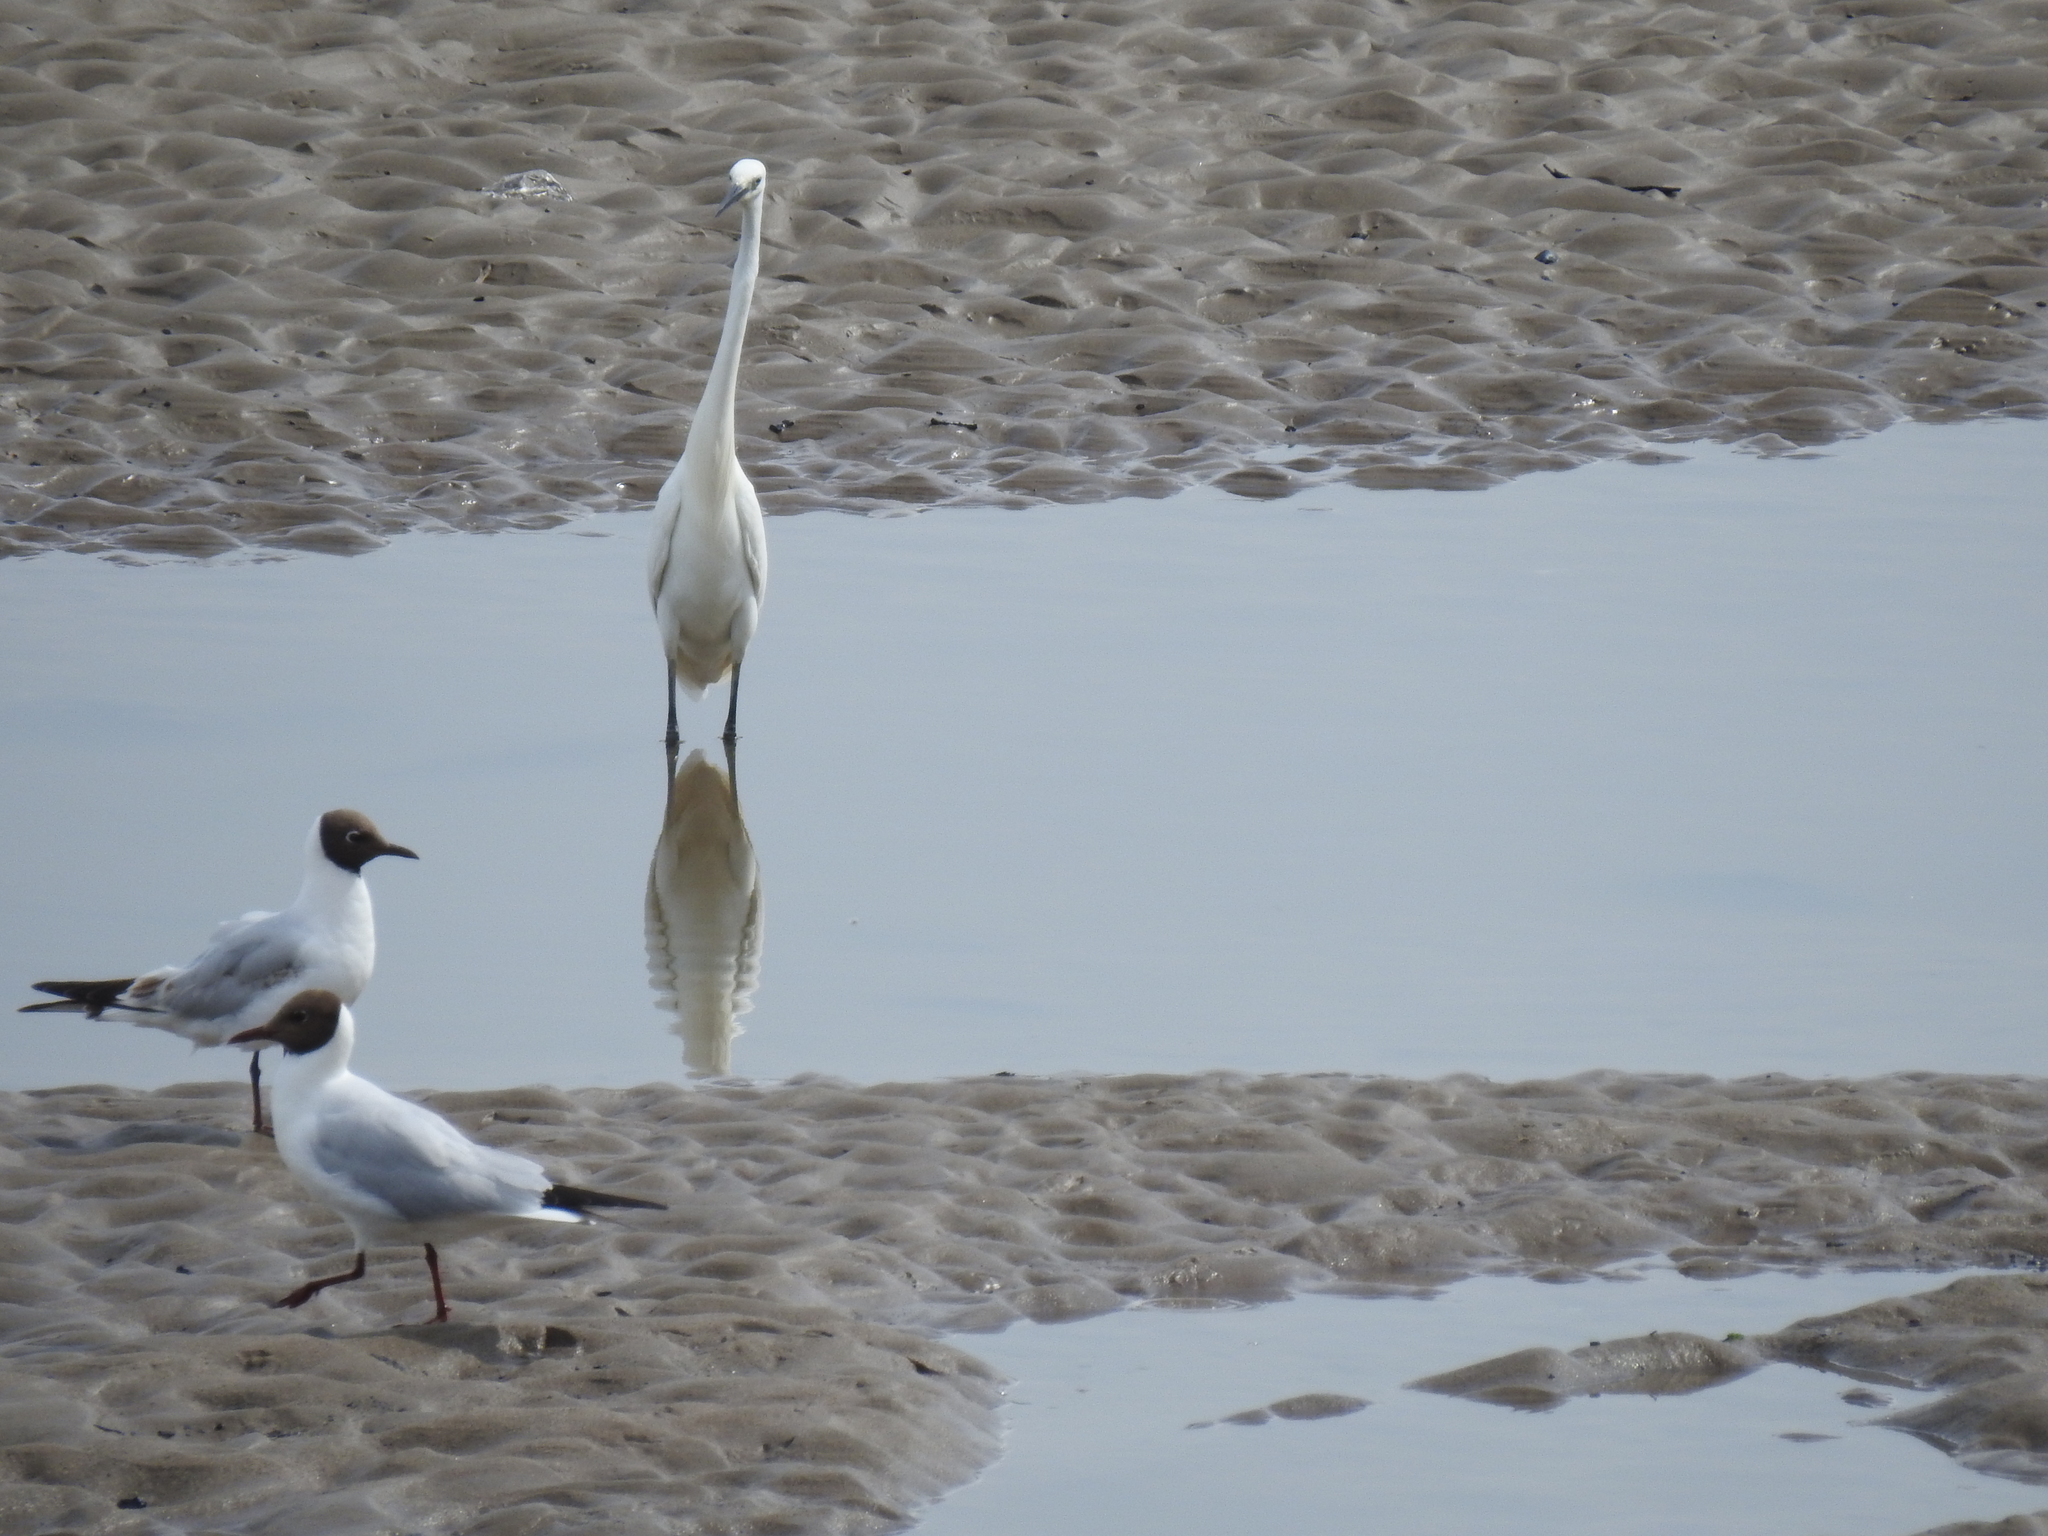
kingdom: Animalia
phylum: Chordata
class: Aves
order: Pelecaniformes
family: Ardeidae
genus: Egretta
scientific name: Egretta garzetta
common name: Little egret
